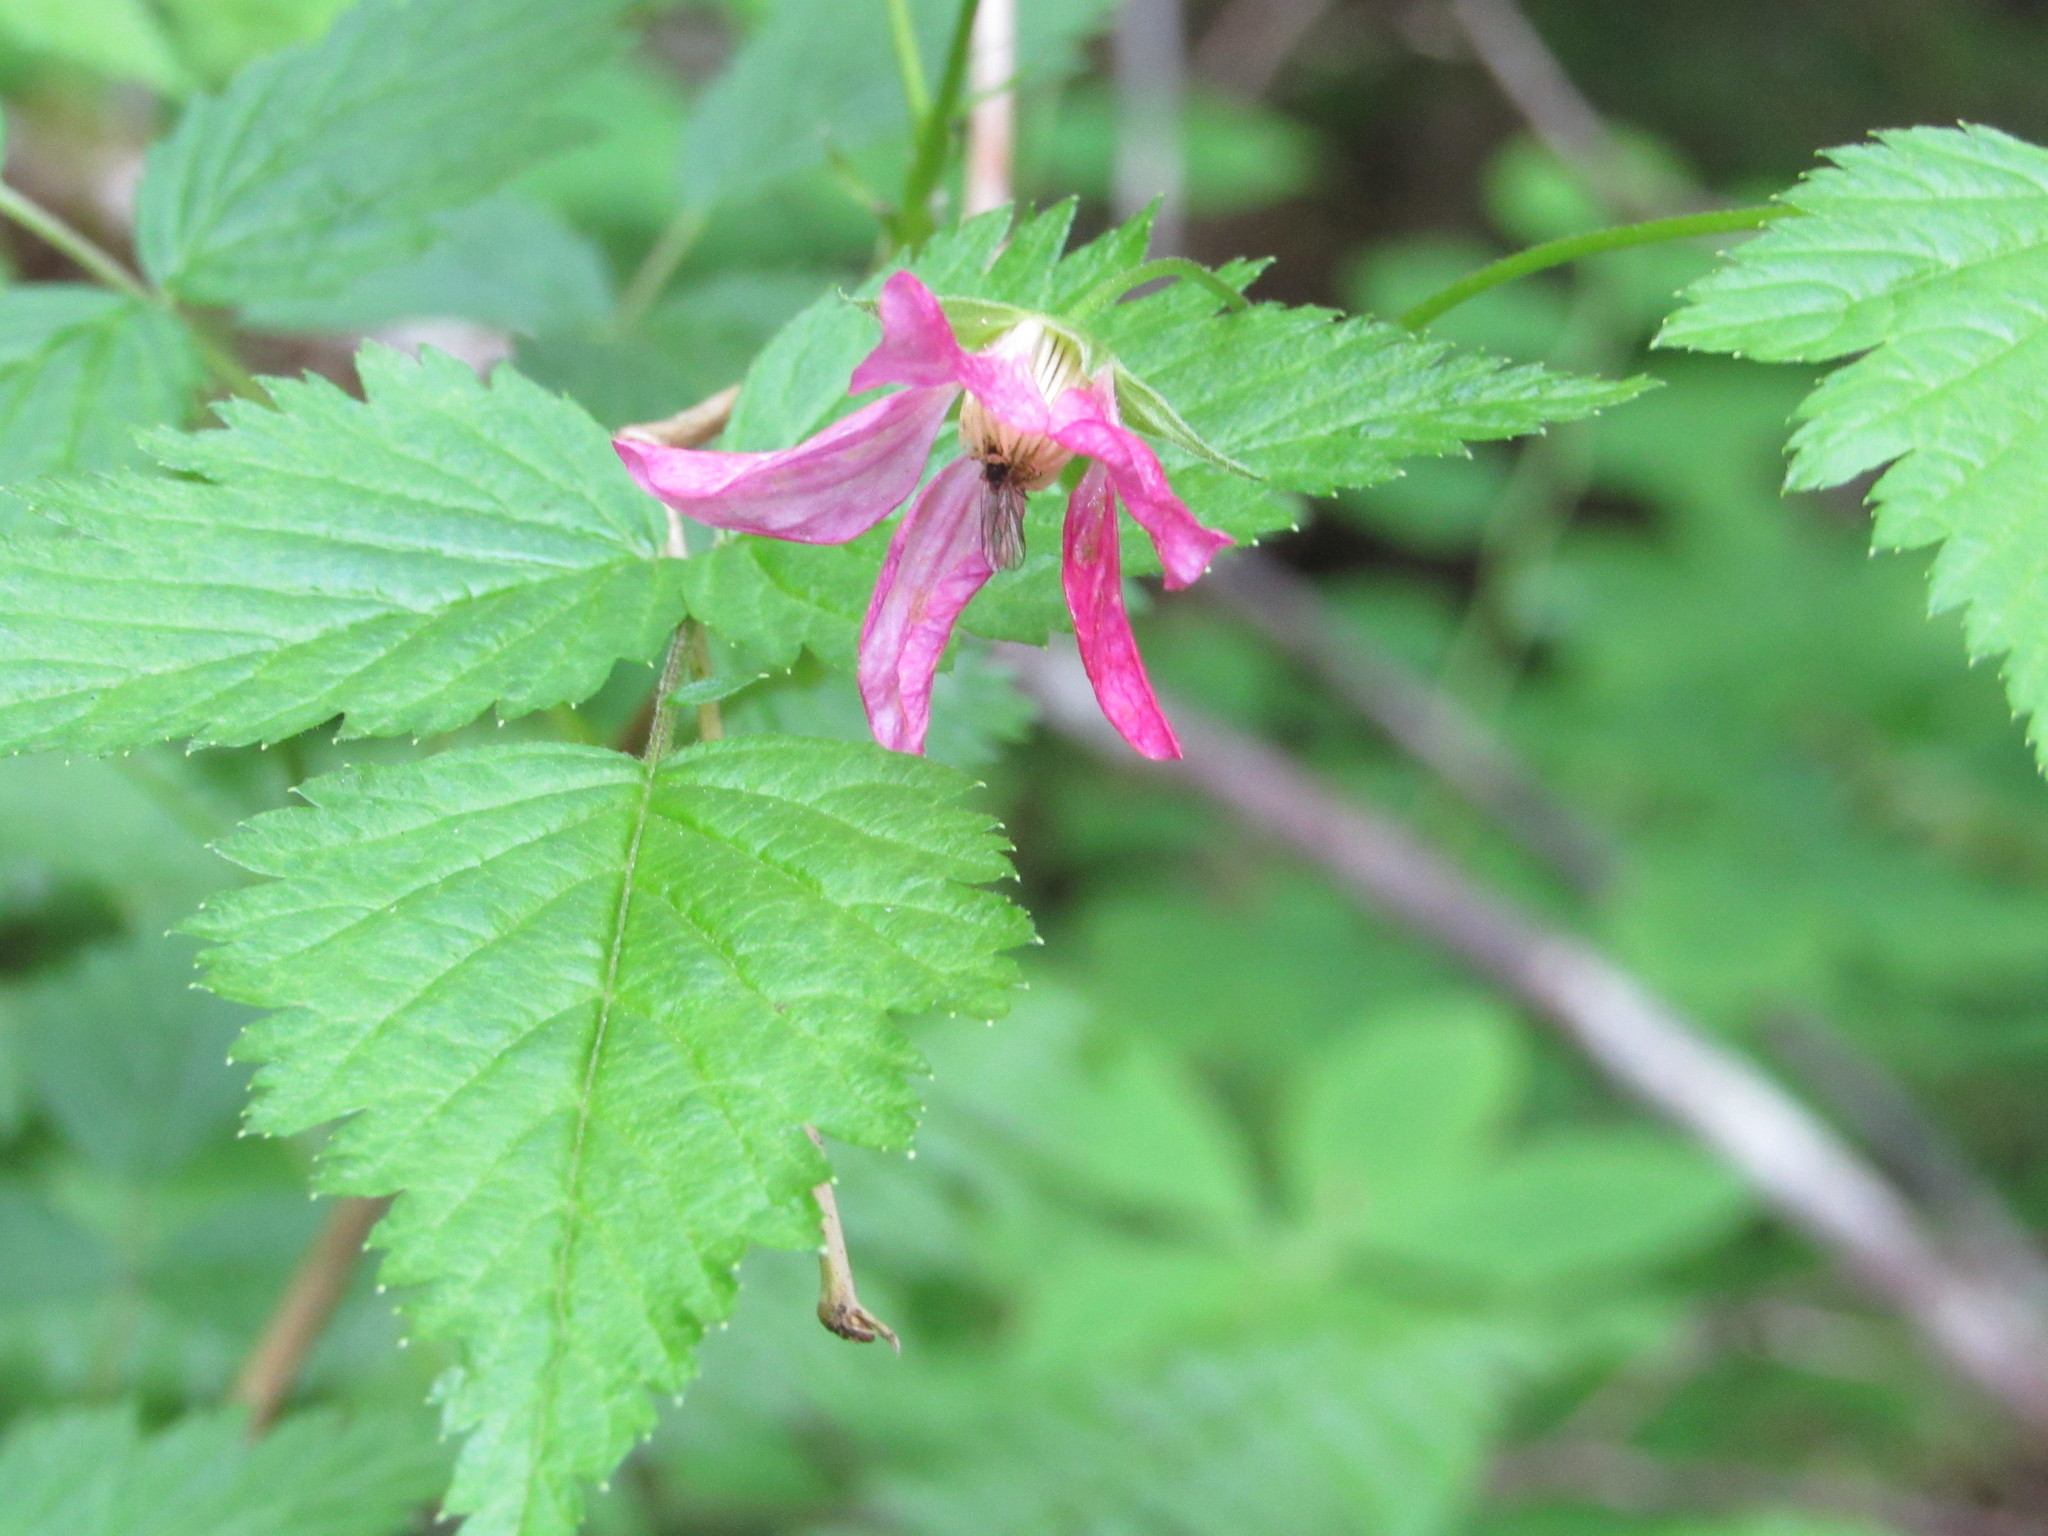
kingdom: Plantae
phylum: Tracheophyta
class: Magnoliopsida
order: Rosales
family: Rosaceae
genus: Rubus
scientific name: Rubus spectabilis
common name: Salmonberry
